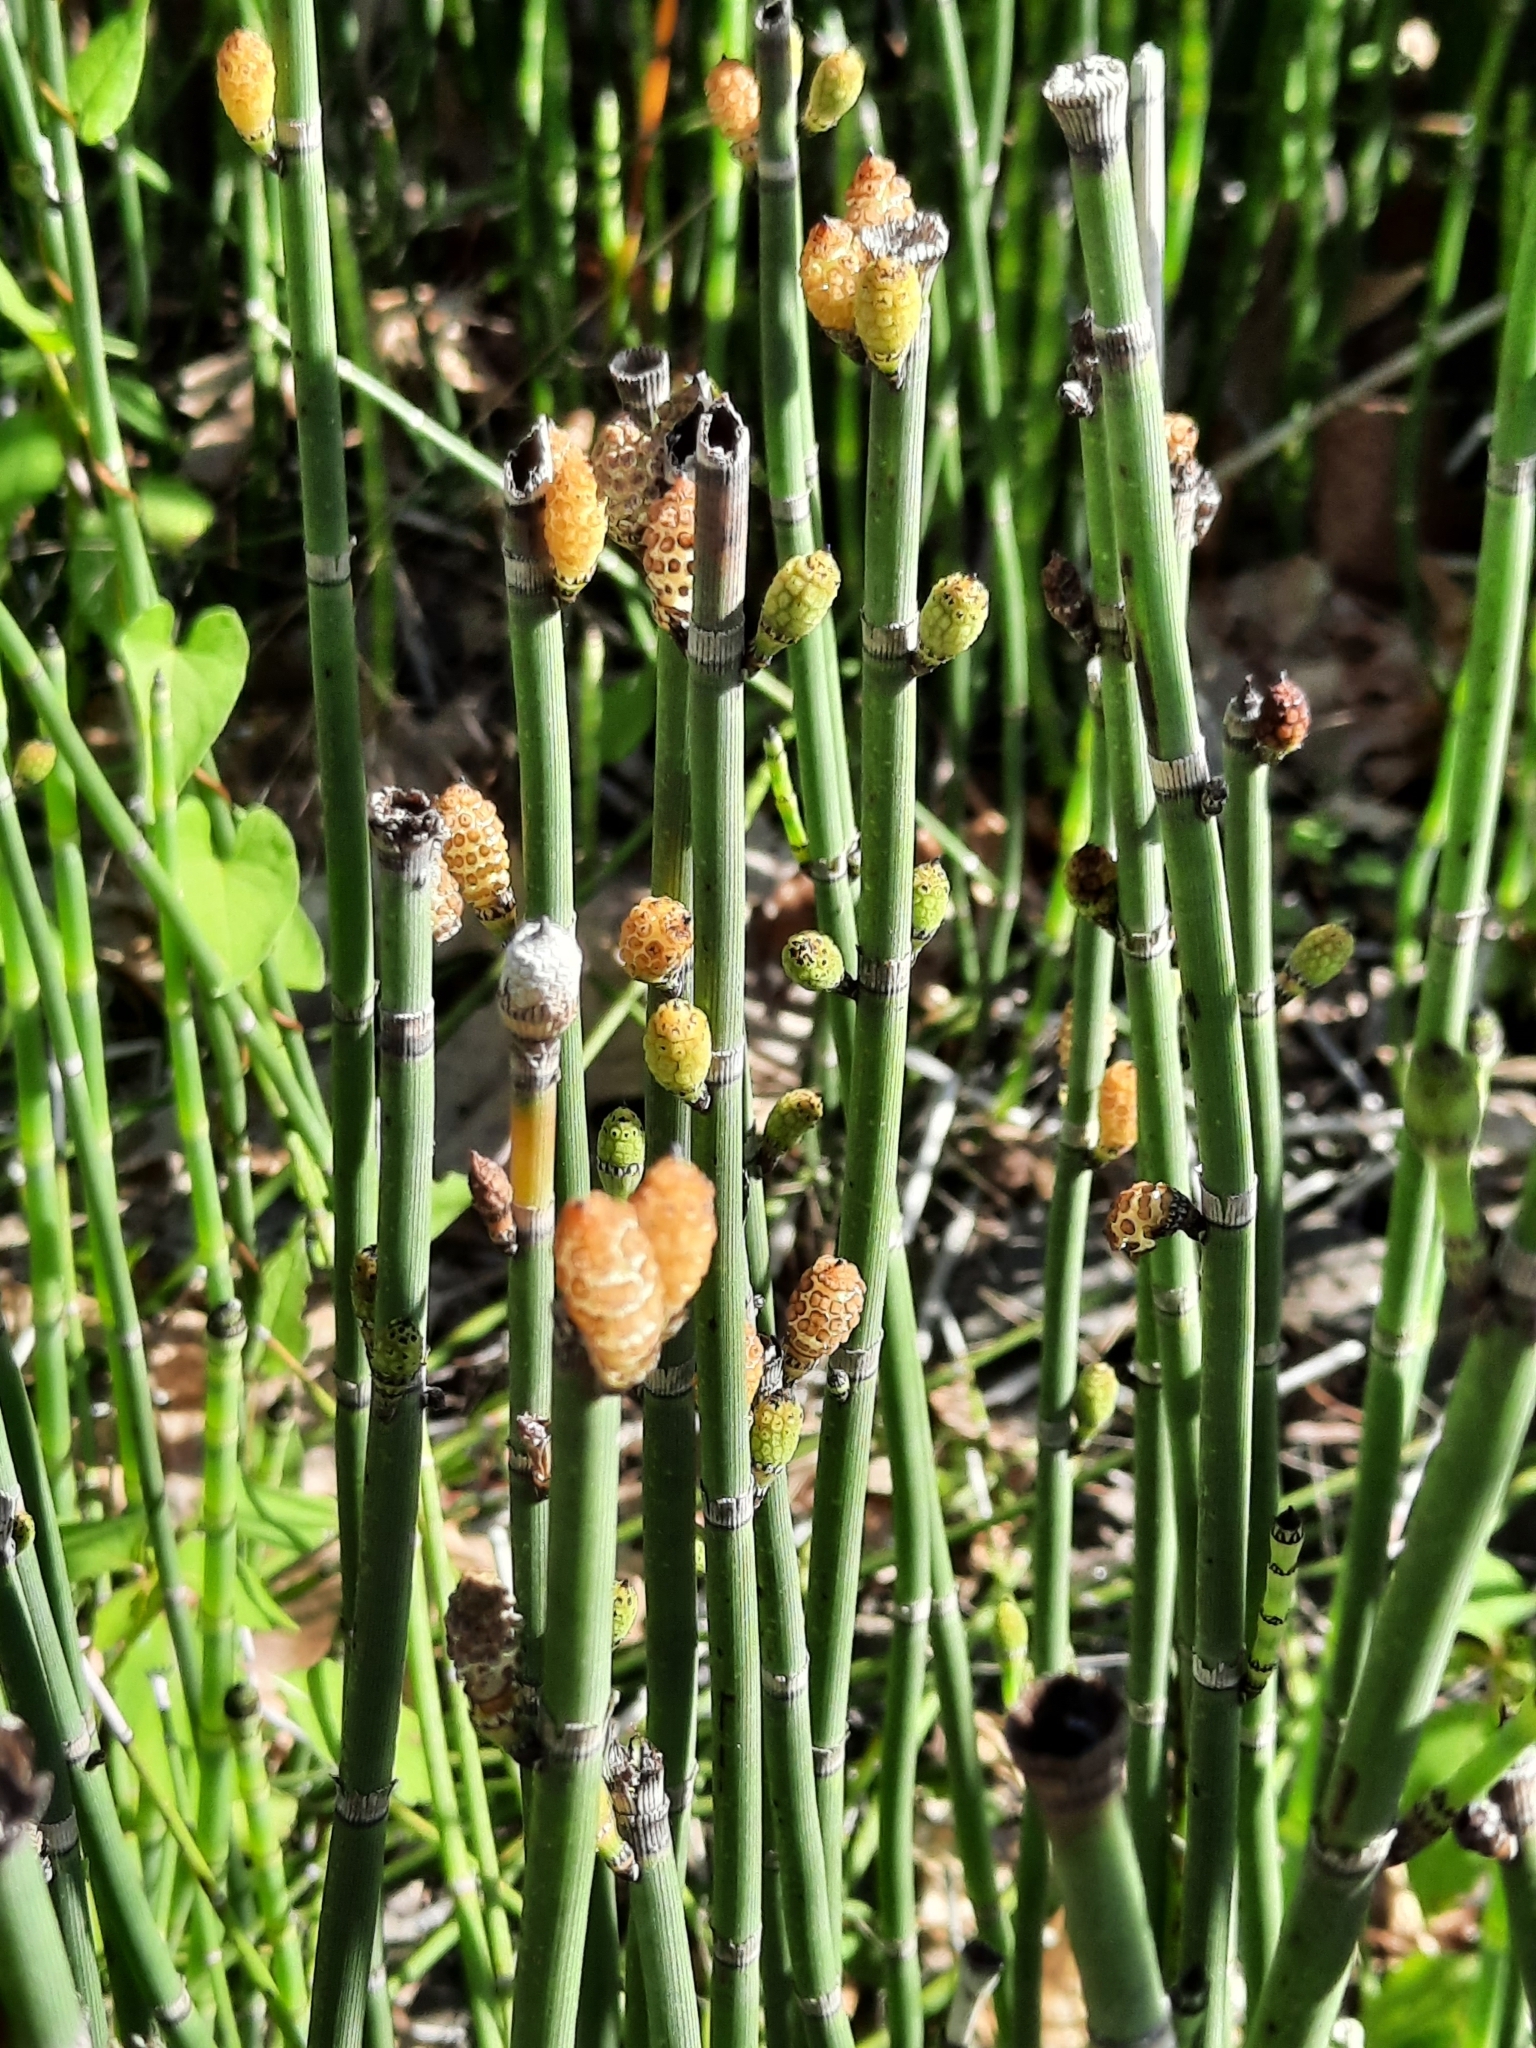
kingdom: Plantae
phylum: Tracheophyta
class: Polypodiopsida
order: Equisetales
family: Equisetaceae
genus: Equisetum
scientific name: Equisetum hyemale
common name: Rough horsetail
